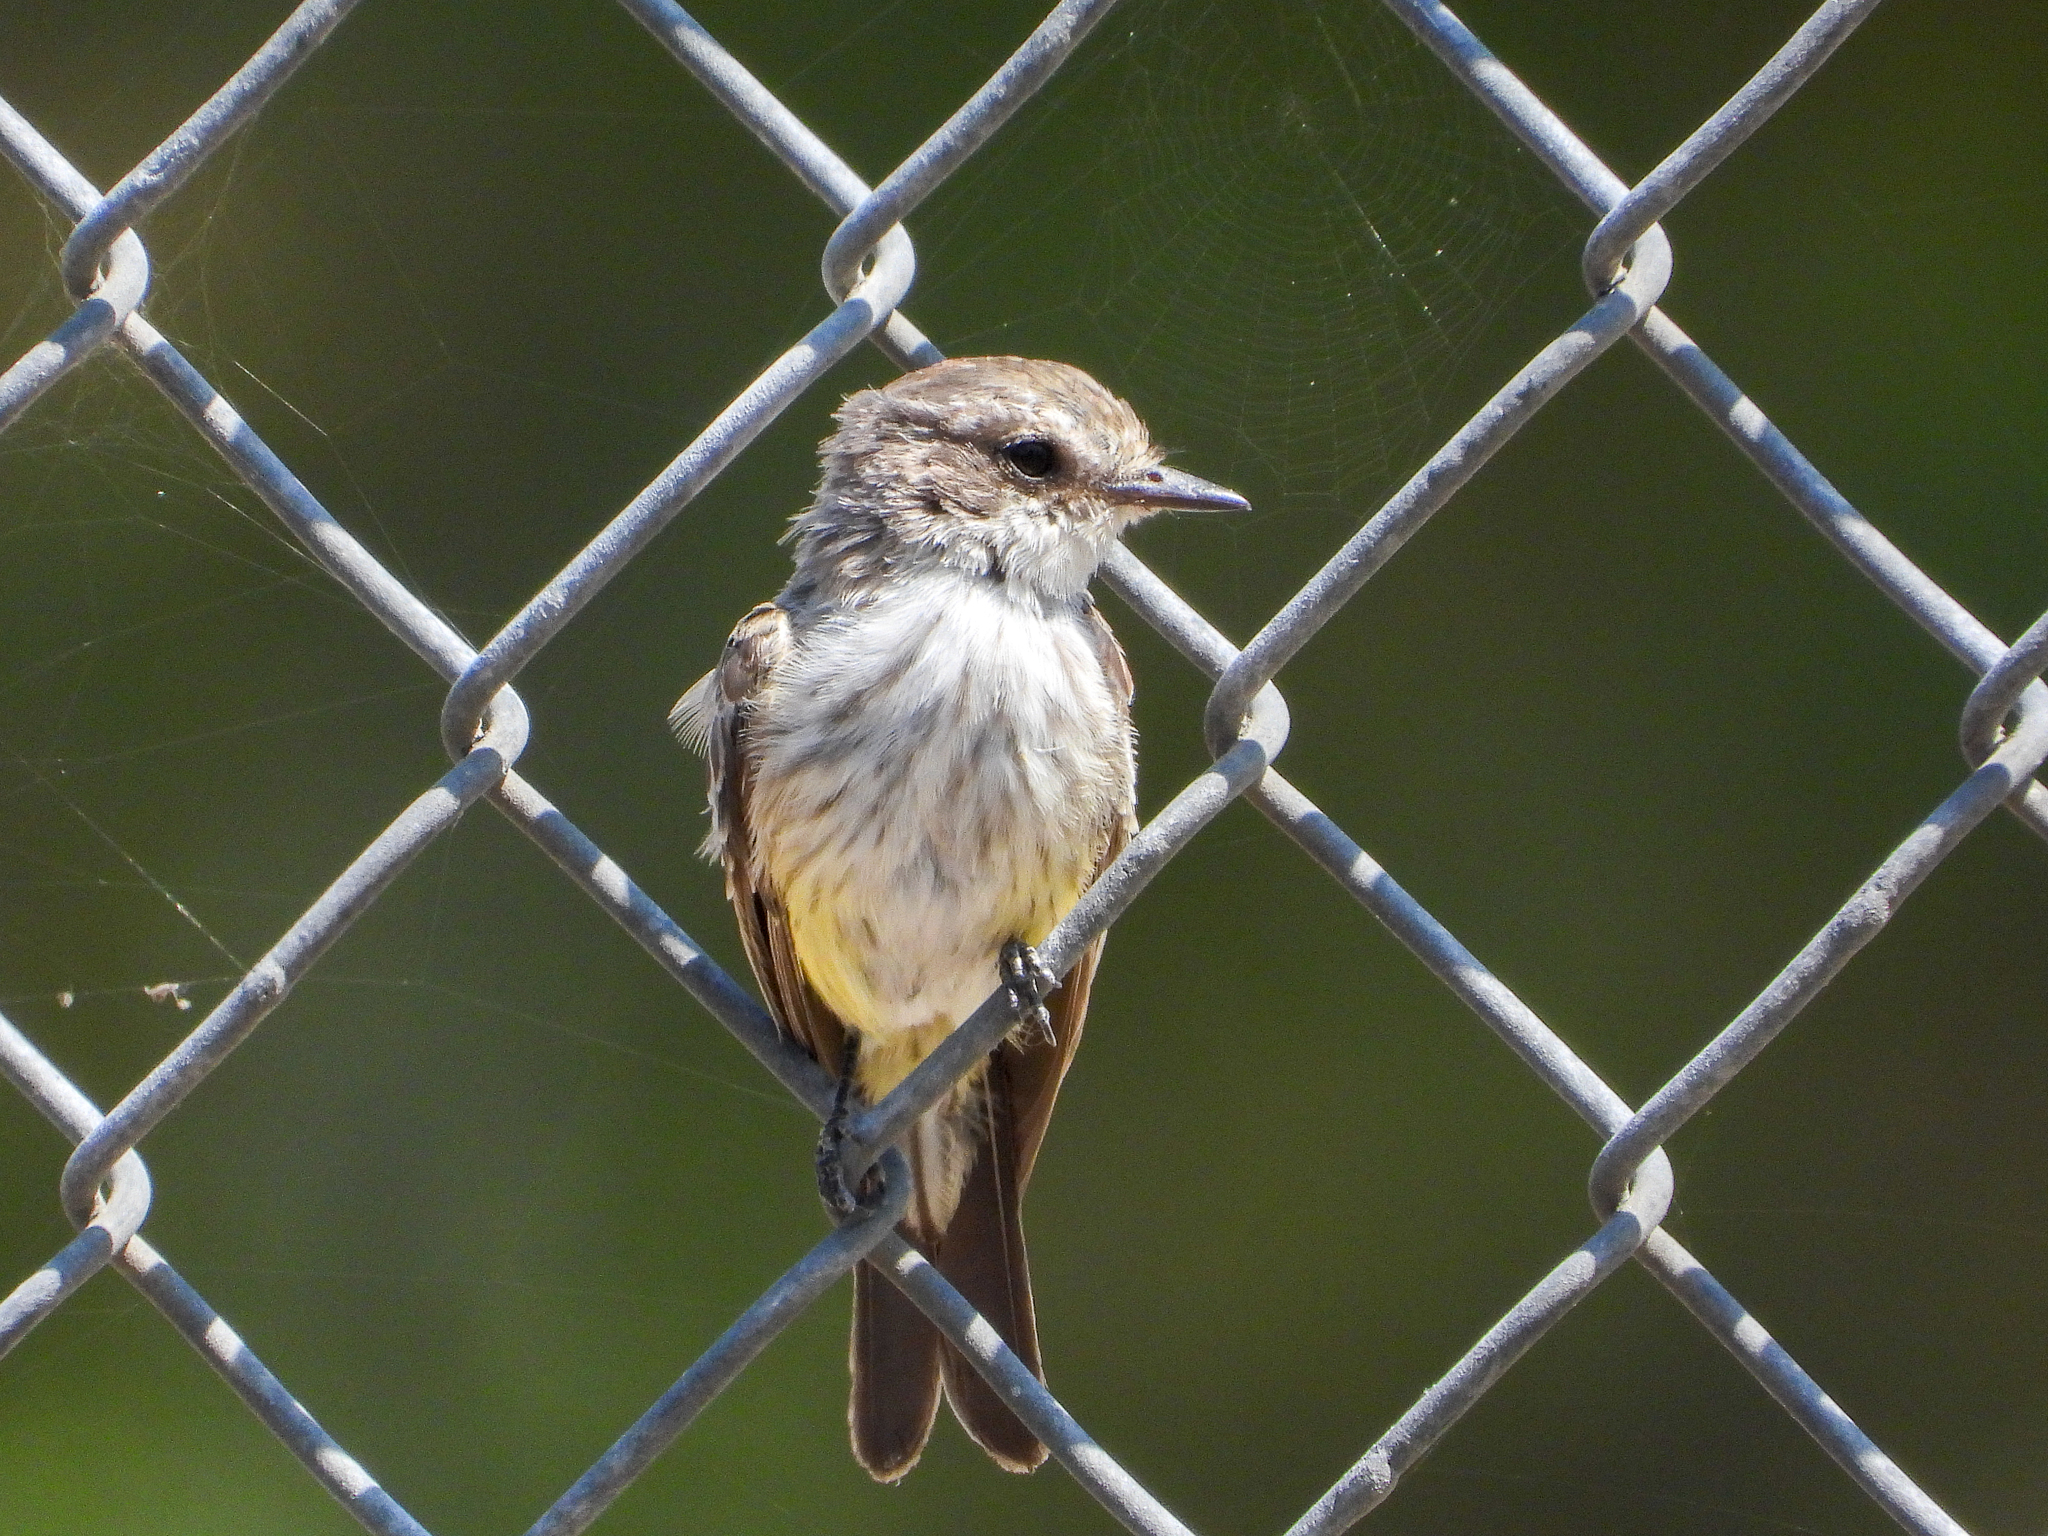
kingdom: Animalia
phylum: Chordata
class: Aves
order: Passeriformes
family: Tyrannidae
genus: Pyrocephalus
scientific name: Pyrocephalus rubinus
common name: Vermilion flycatcher
